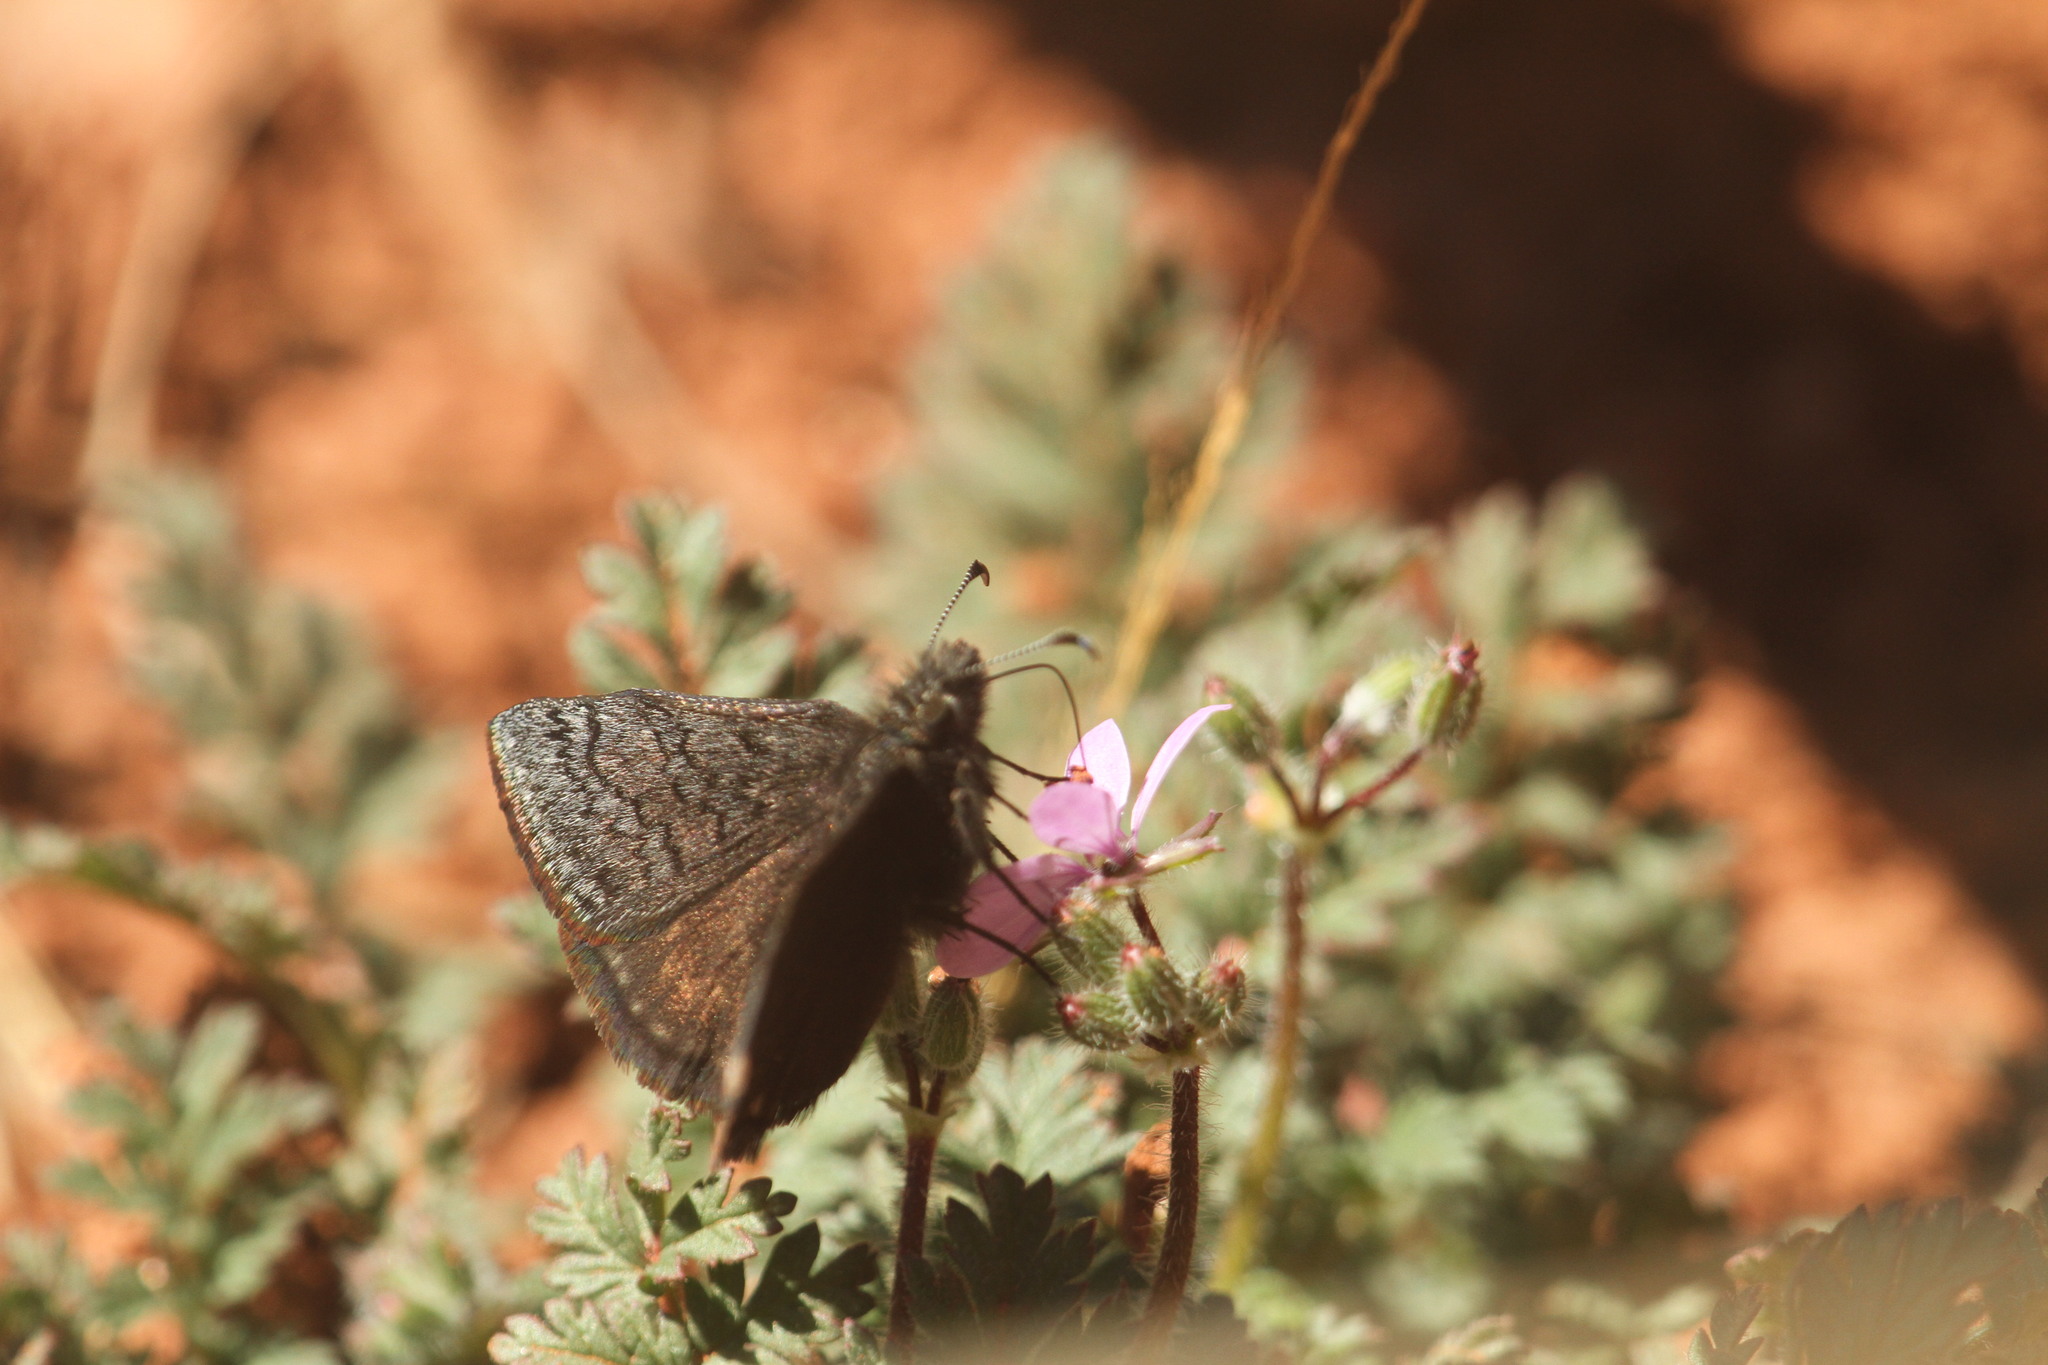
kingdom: Animalia
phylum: Arthropoda
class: Insecta
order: Lepidoptera
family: Hesperiidae
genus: Erynnis
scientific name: Erynnis brizo
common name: Sleepy duskywing
